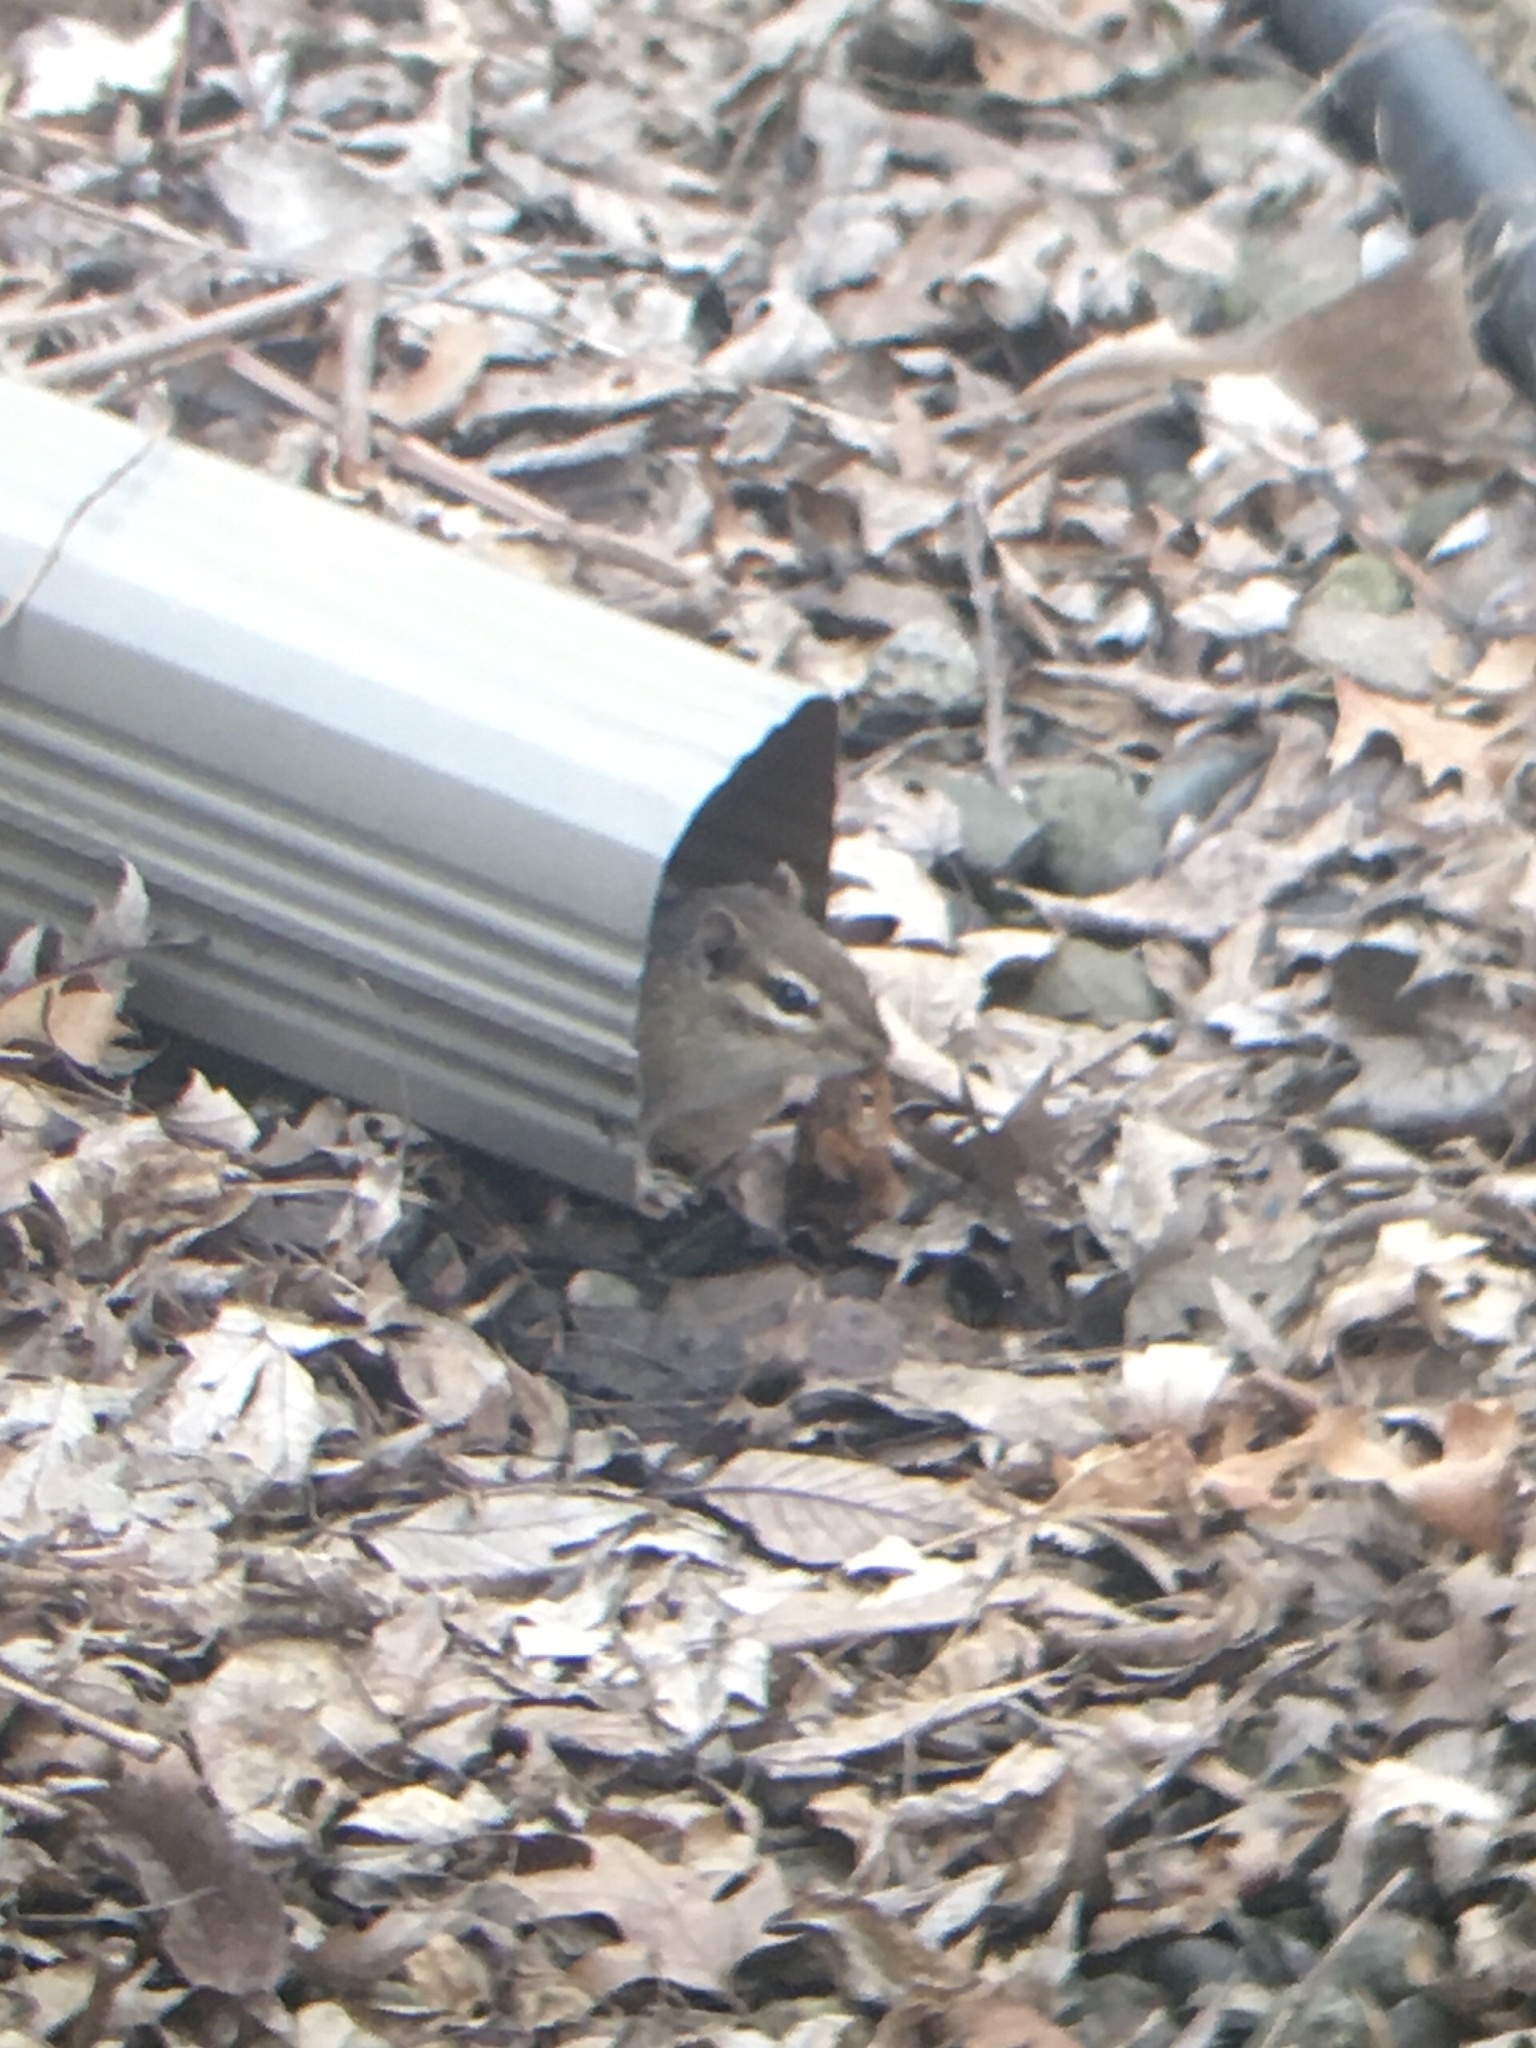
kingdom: Animalia
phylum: Chordata
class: Mammalia
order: Rodentia
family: Sciuridae
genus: Tamias
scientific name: Tamias striatus
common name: Eastern chipmunk
